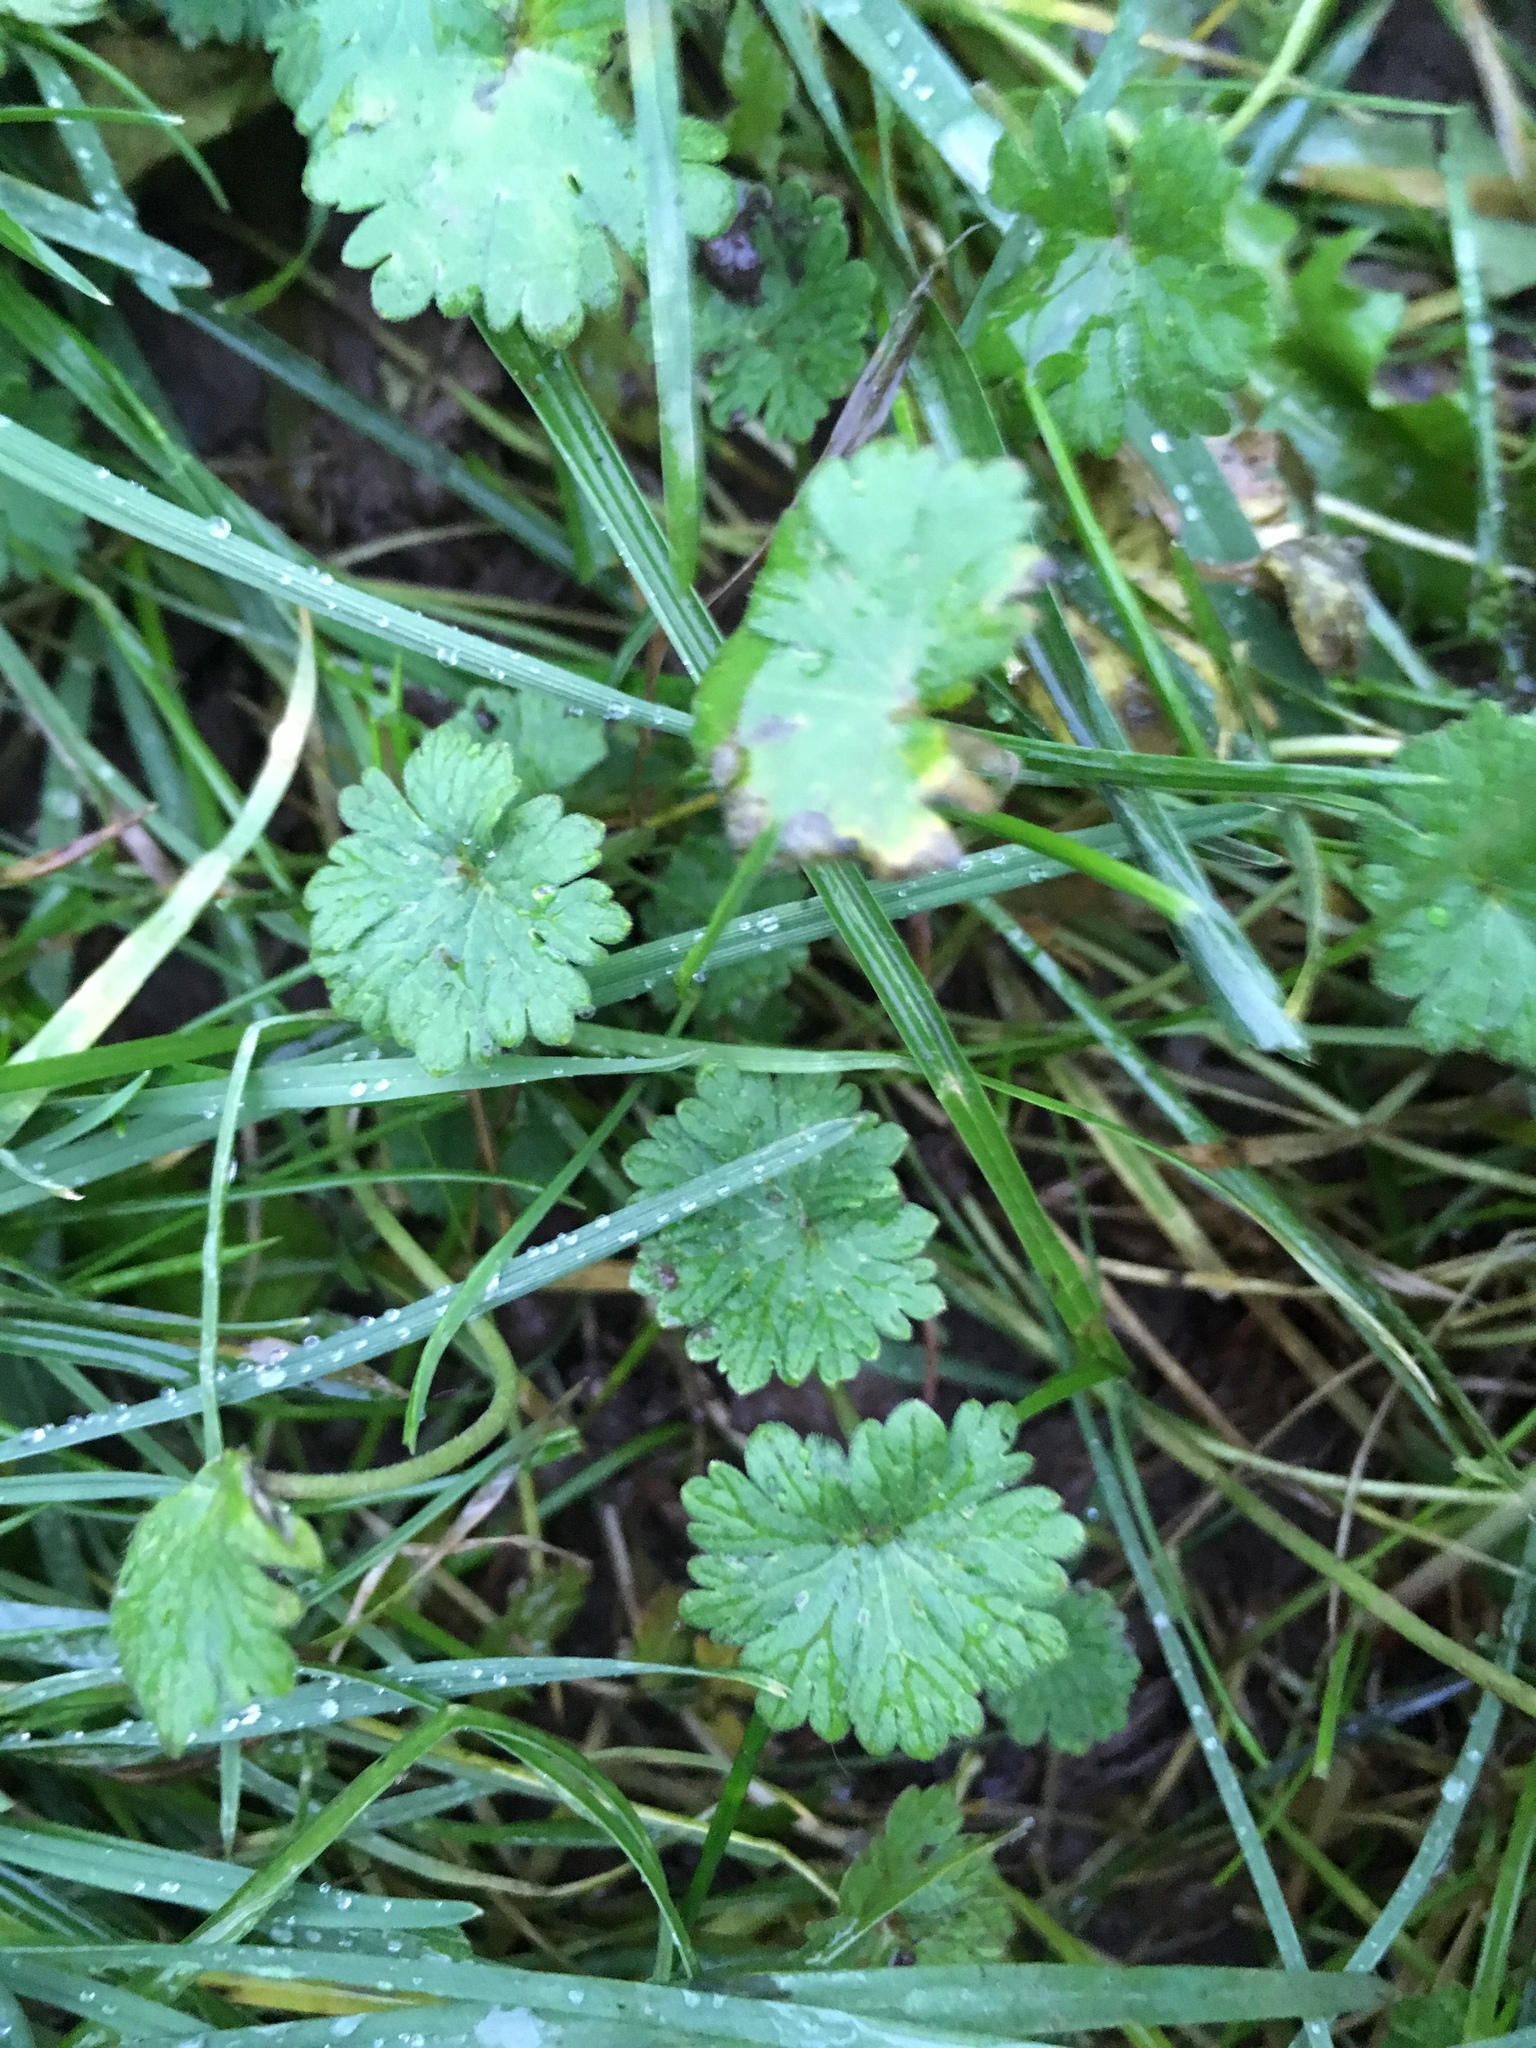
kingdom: Plantae
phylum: Tracheophyta
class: Magnoliopsida
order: Geraniales
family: Geraniaceae
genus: Geranium
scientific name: Geranium molle
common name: Dove's-foot crane's-bill
